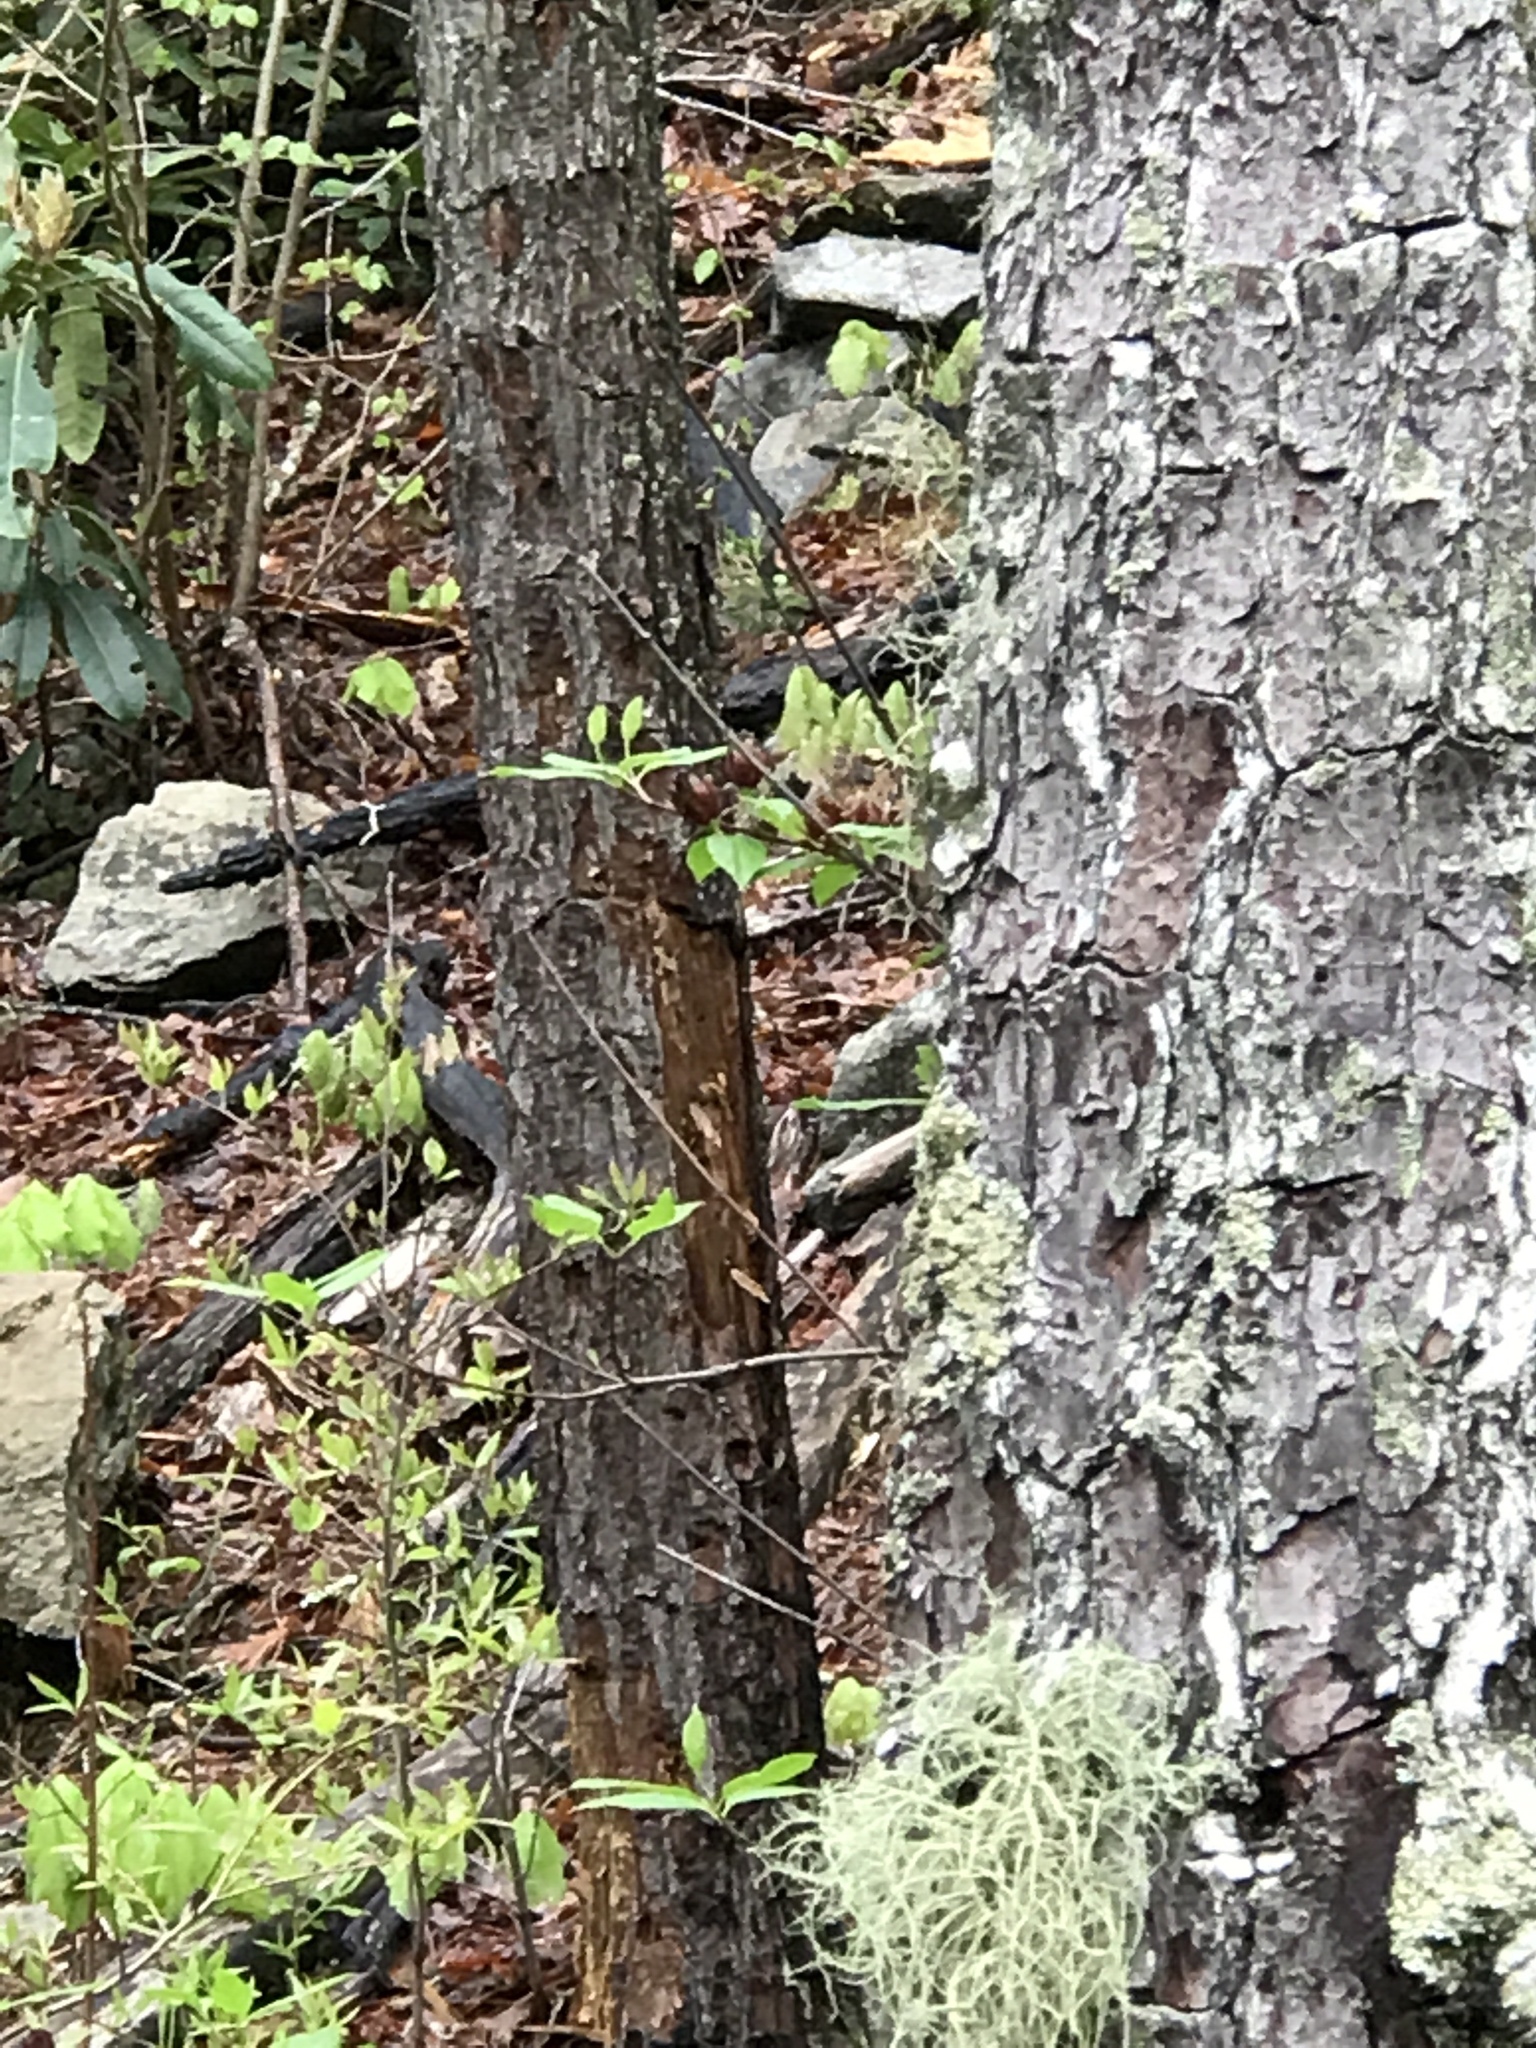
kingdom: Animalia
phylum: Chordata
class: Aves
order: Piciformes
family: Picidae
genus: Dryocopus
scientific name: Dryocopus pileatus
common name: Pileated woodpecker
